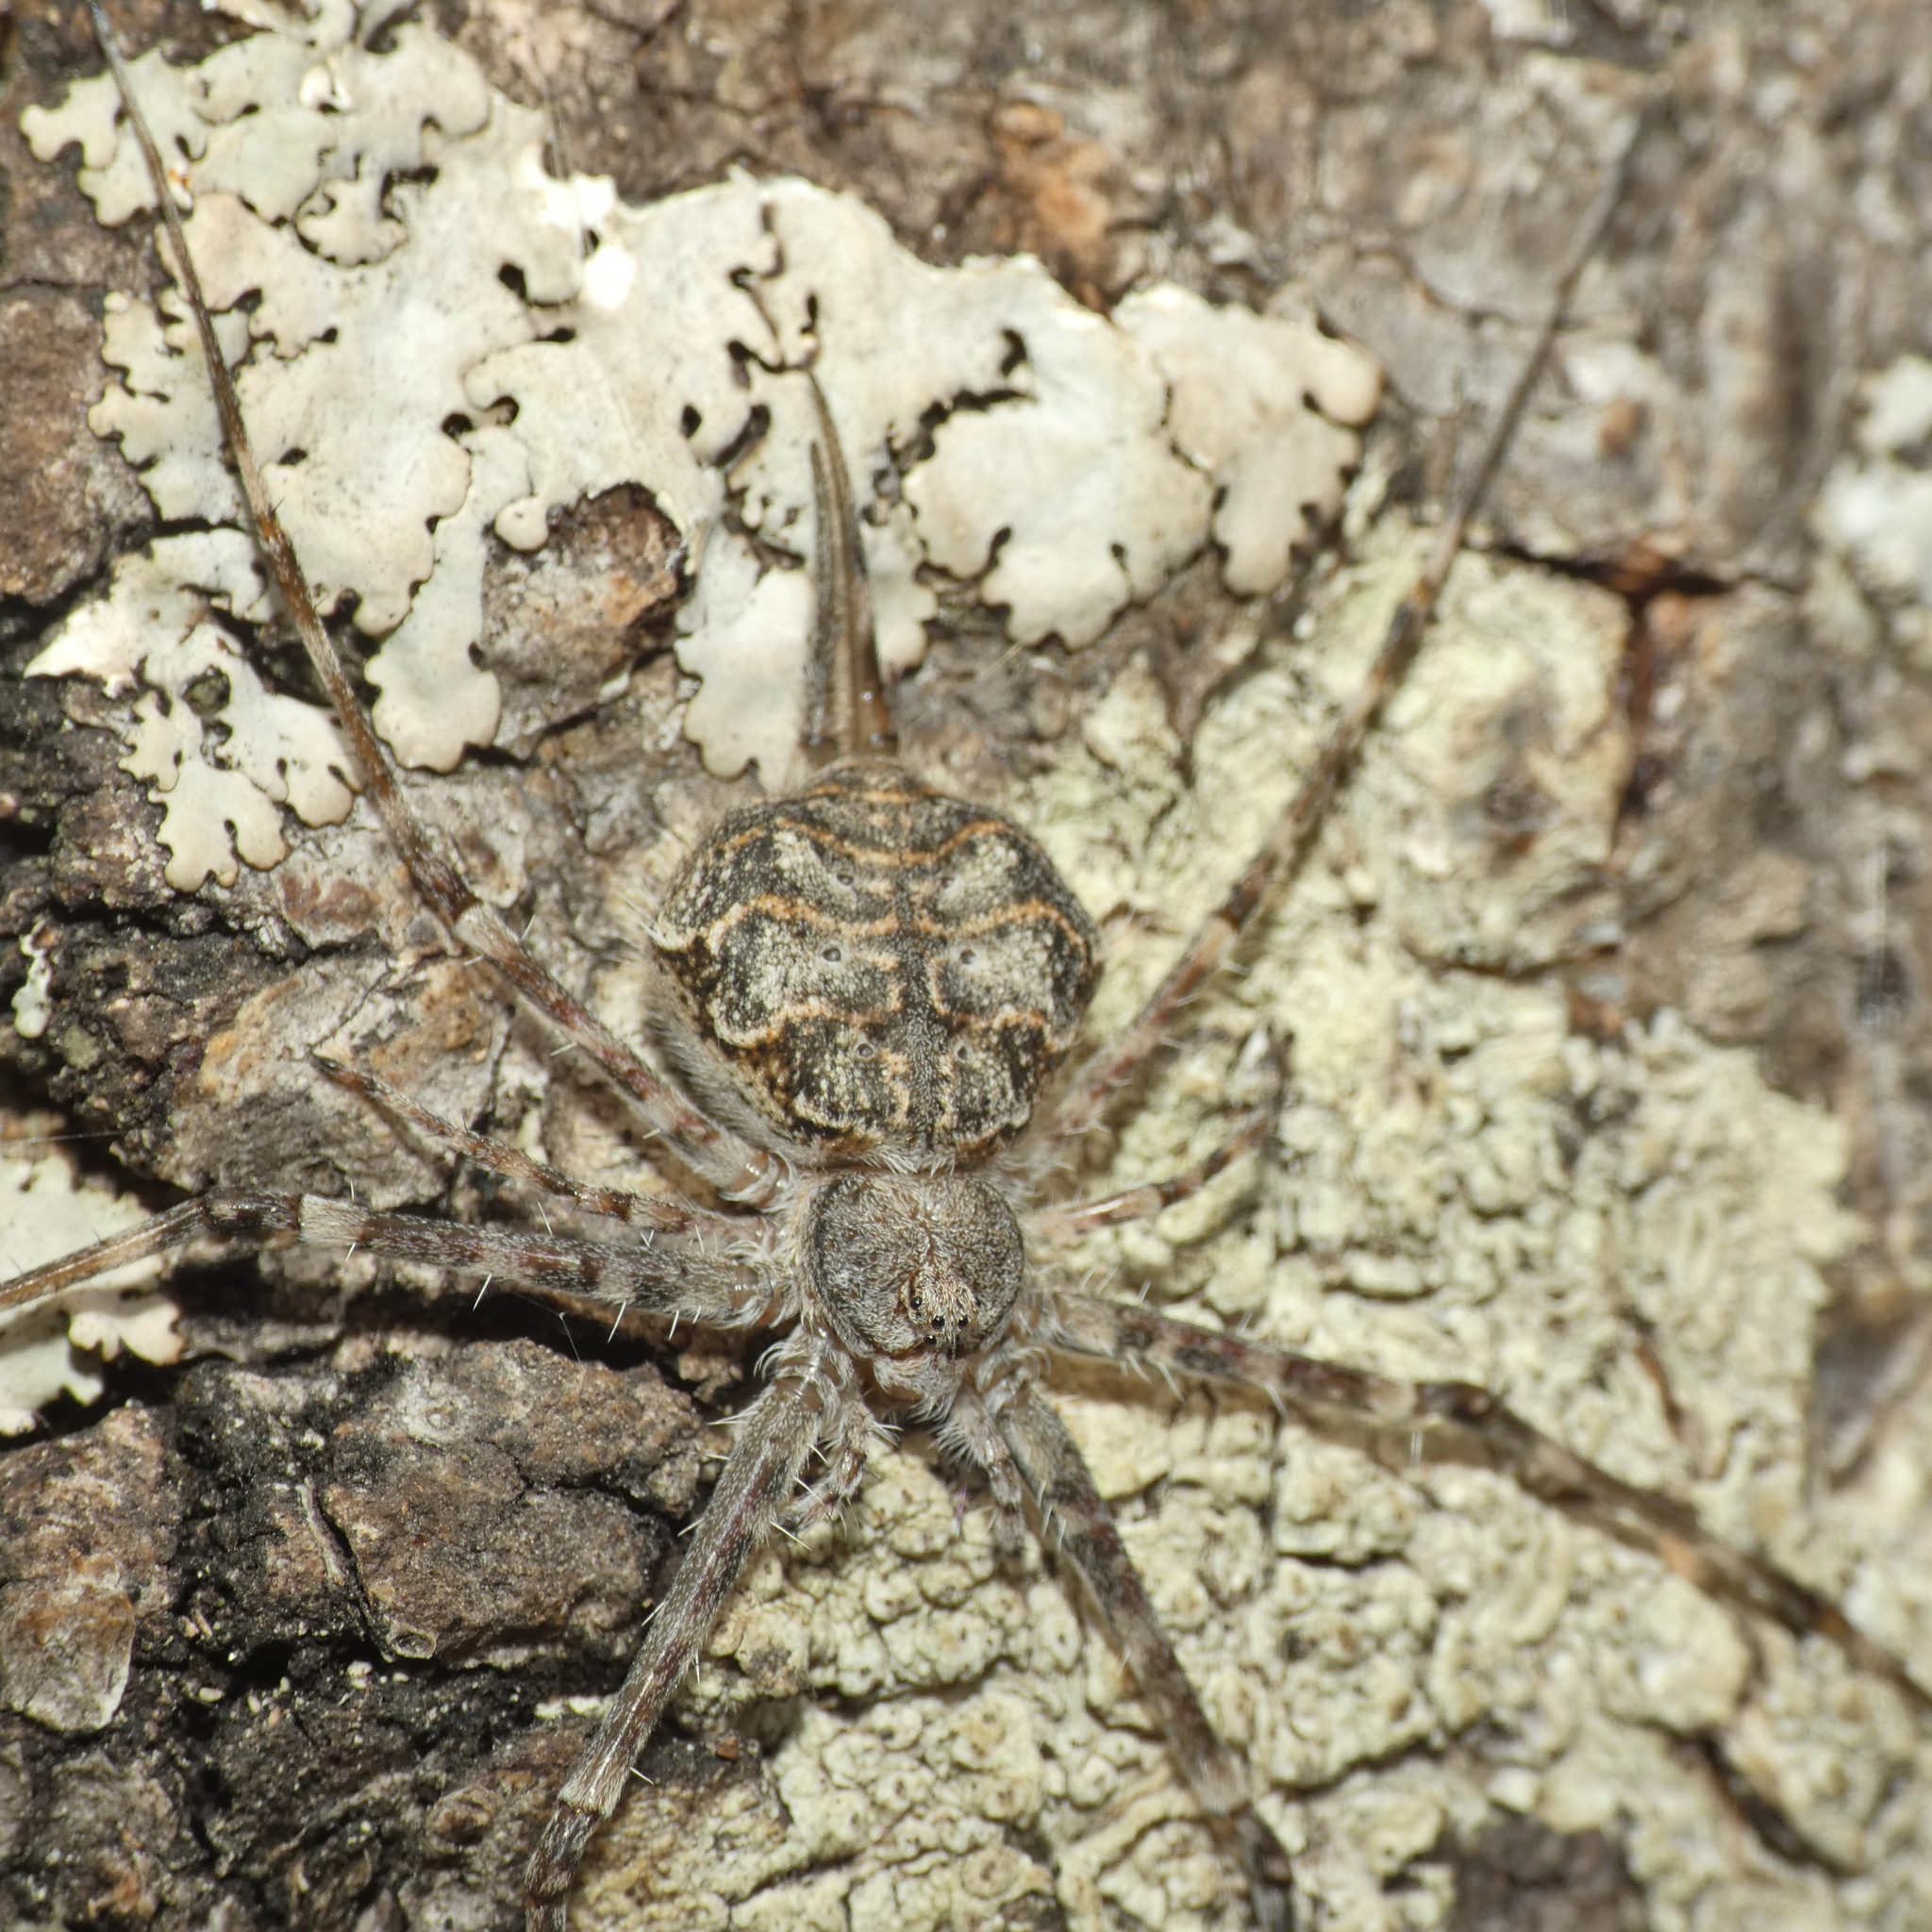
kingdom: Animalia
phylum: Arthropoda
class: Arachnida
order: Araneae
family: Hersiliidae
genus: Hersilia
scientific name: Hersilia sericea
